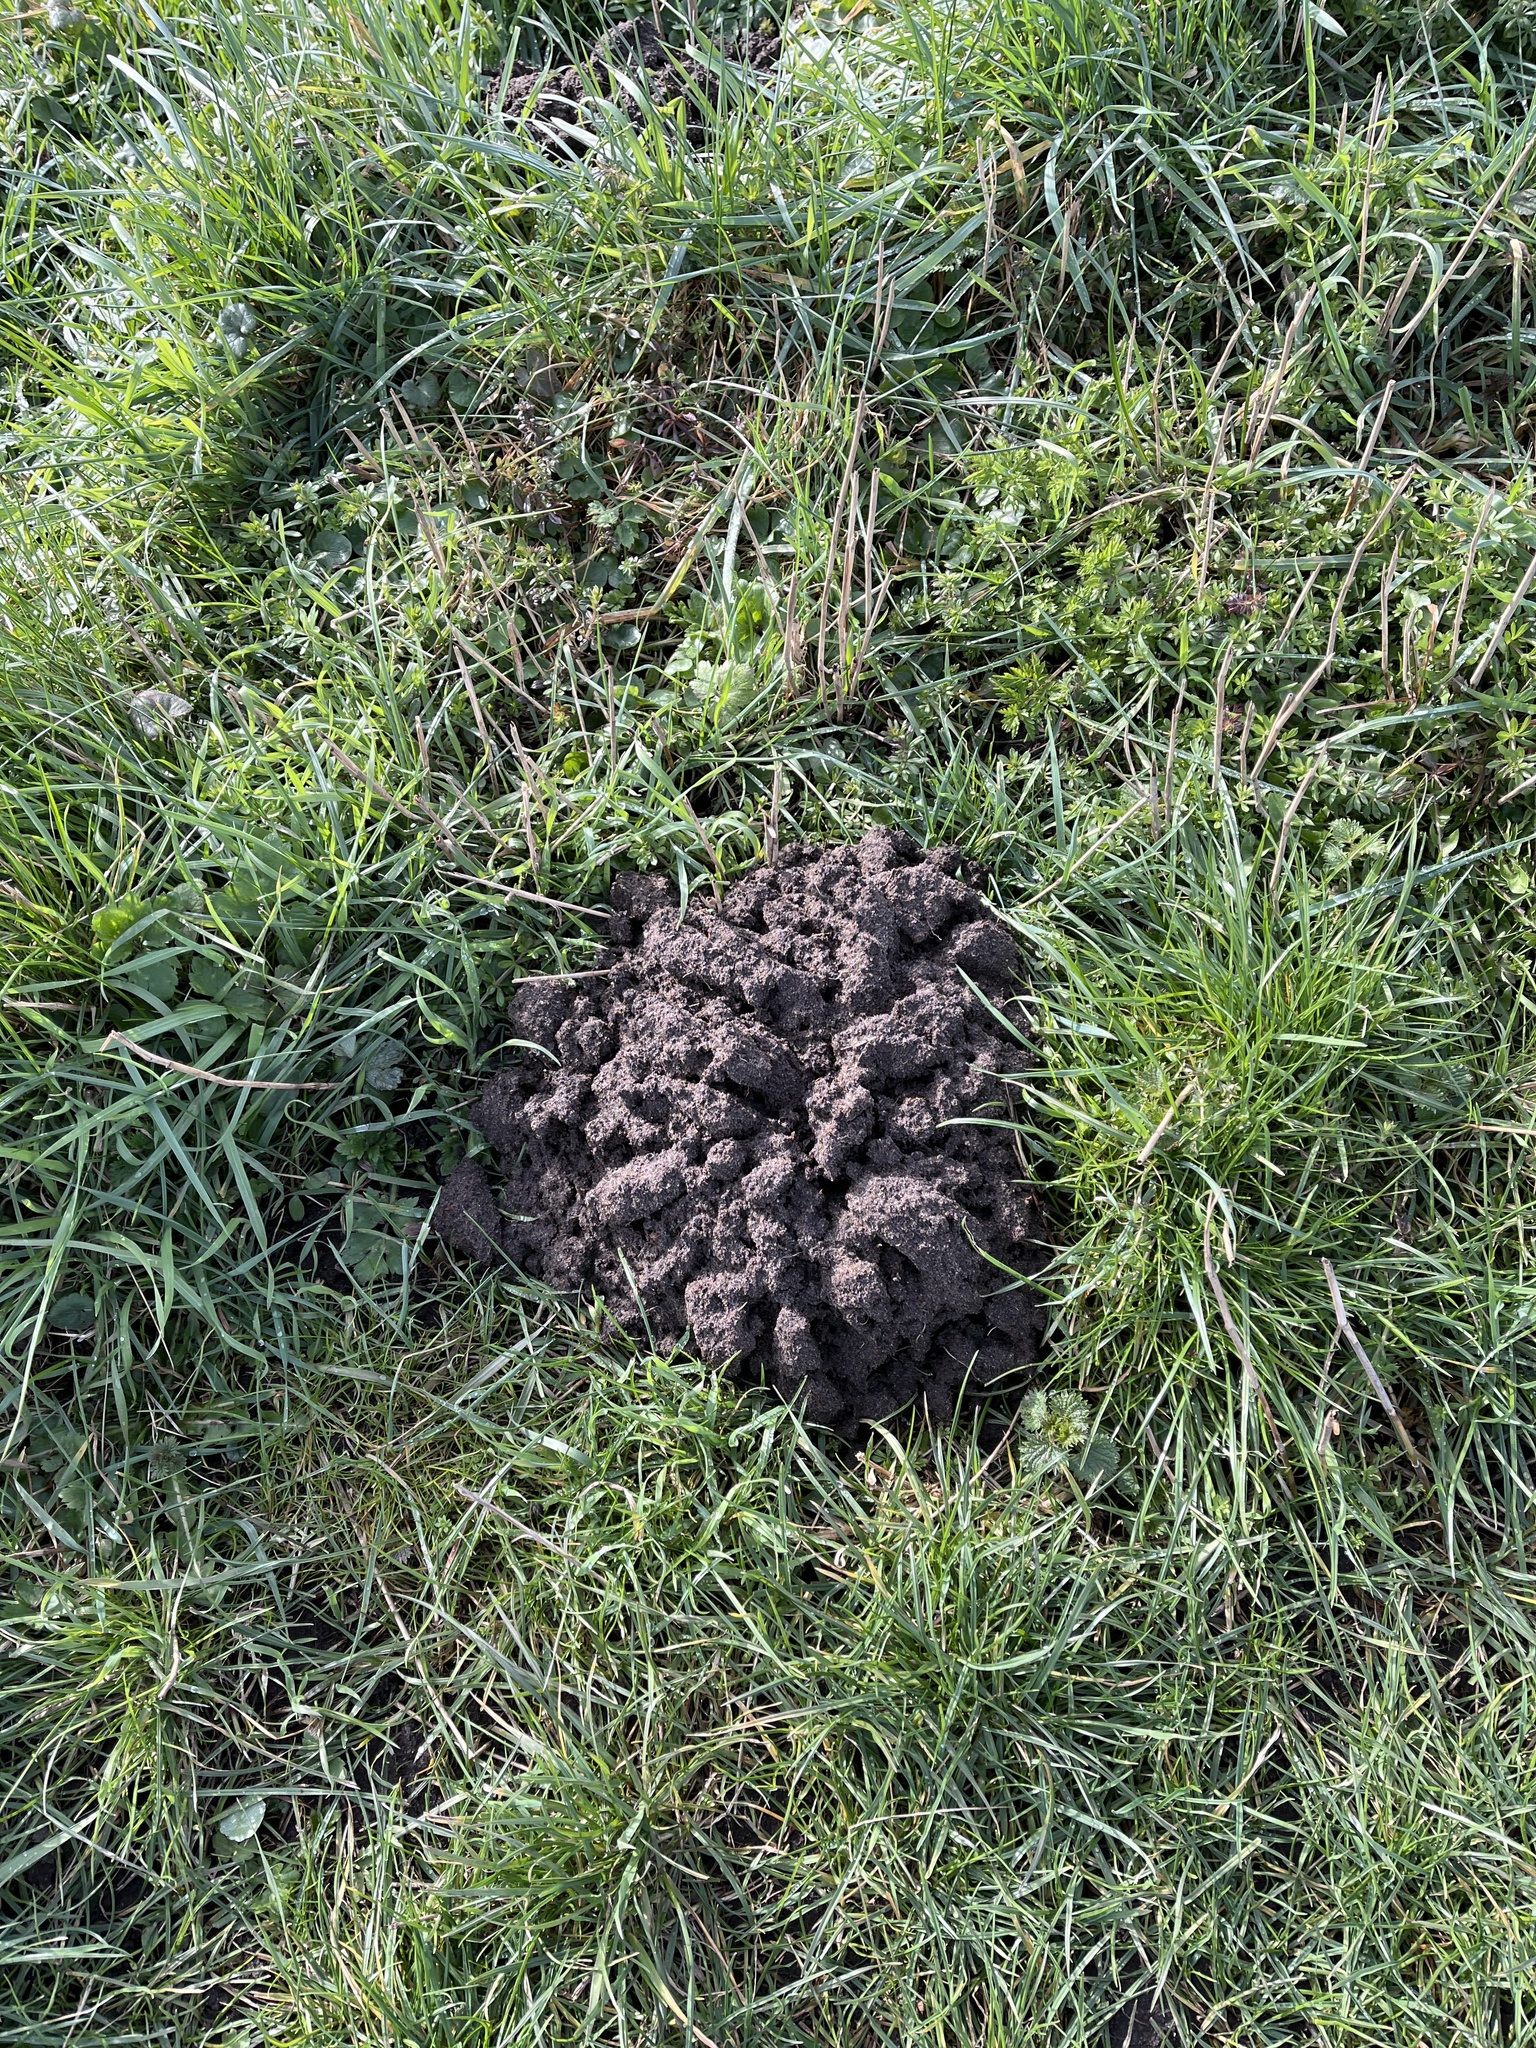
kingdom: Animalia
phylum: Chordata
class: Mammalia
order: Soricomorpha
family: Talpidae
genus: Talpa
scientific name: Talpa europaea
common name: European mole
